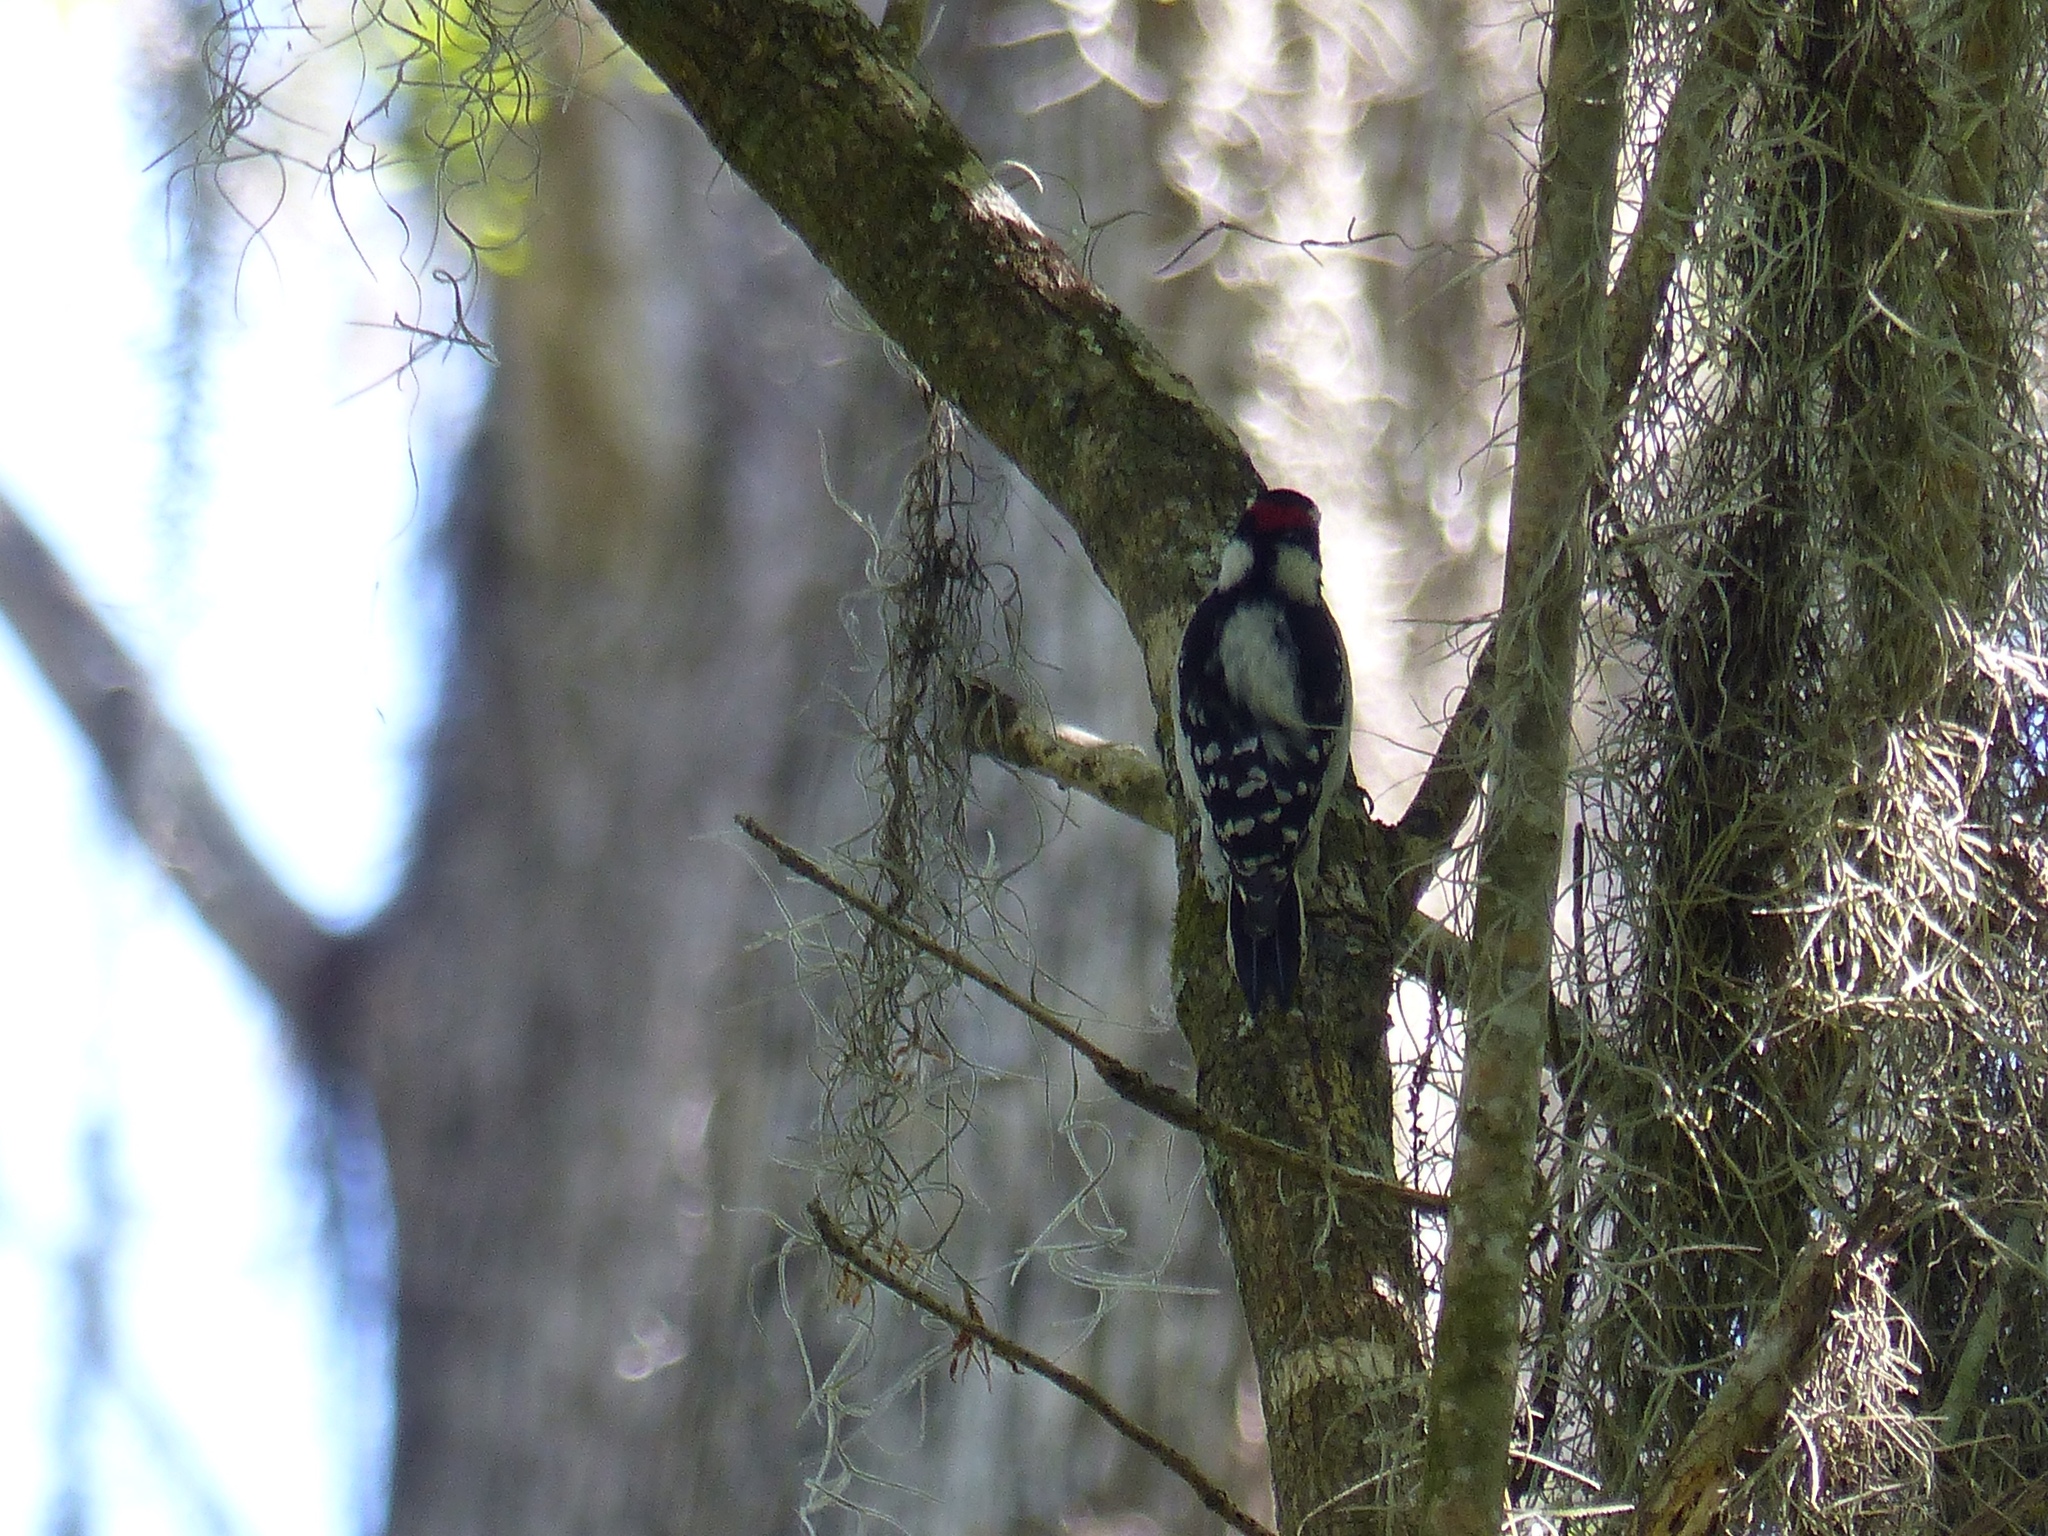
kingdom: Animalia
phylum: Chordata
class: Aves
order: Piciformes
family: Picidae
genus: Dryobates
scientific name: Dryobates pubescens
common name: Downy woodpecker
